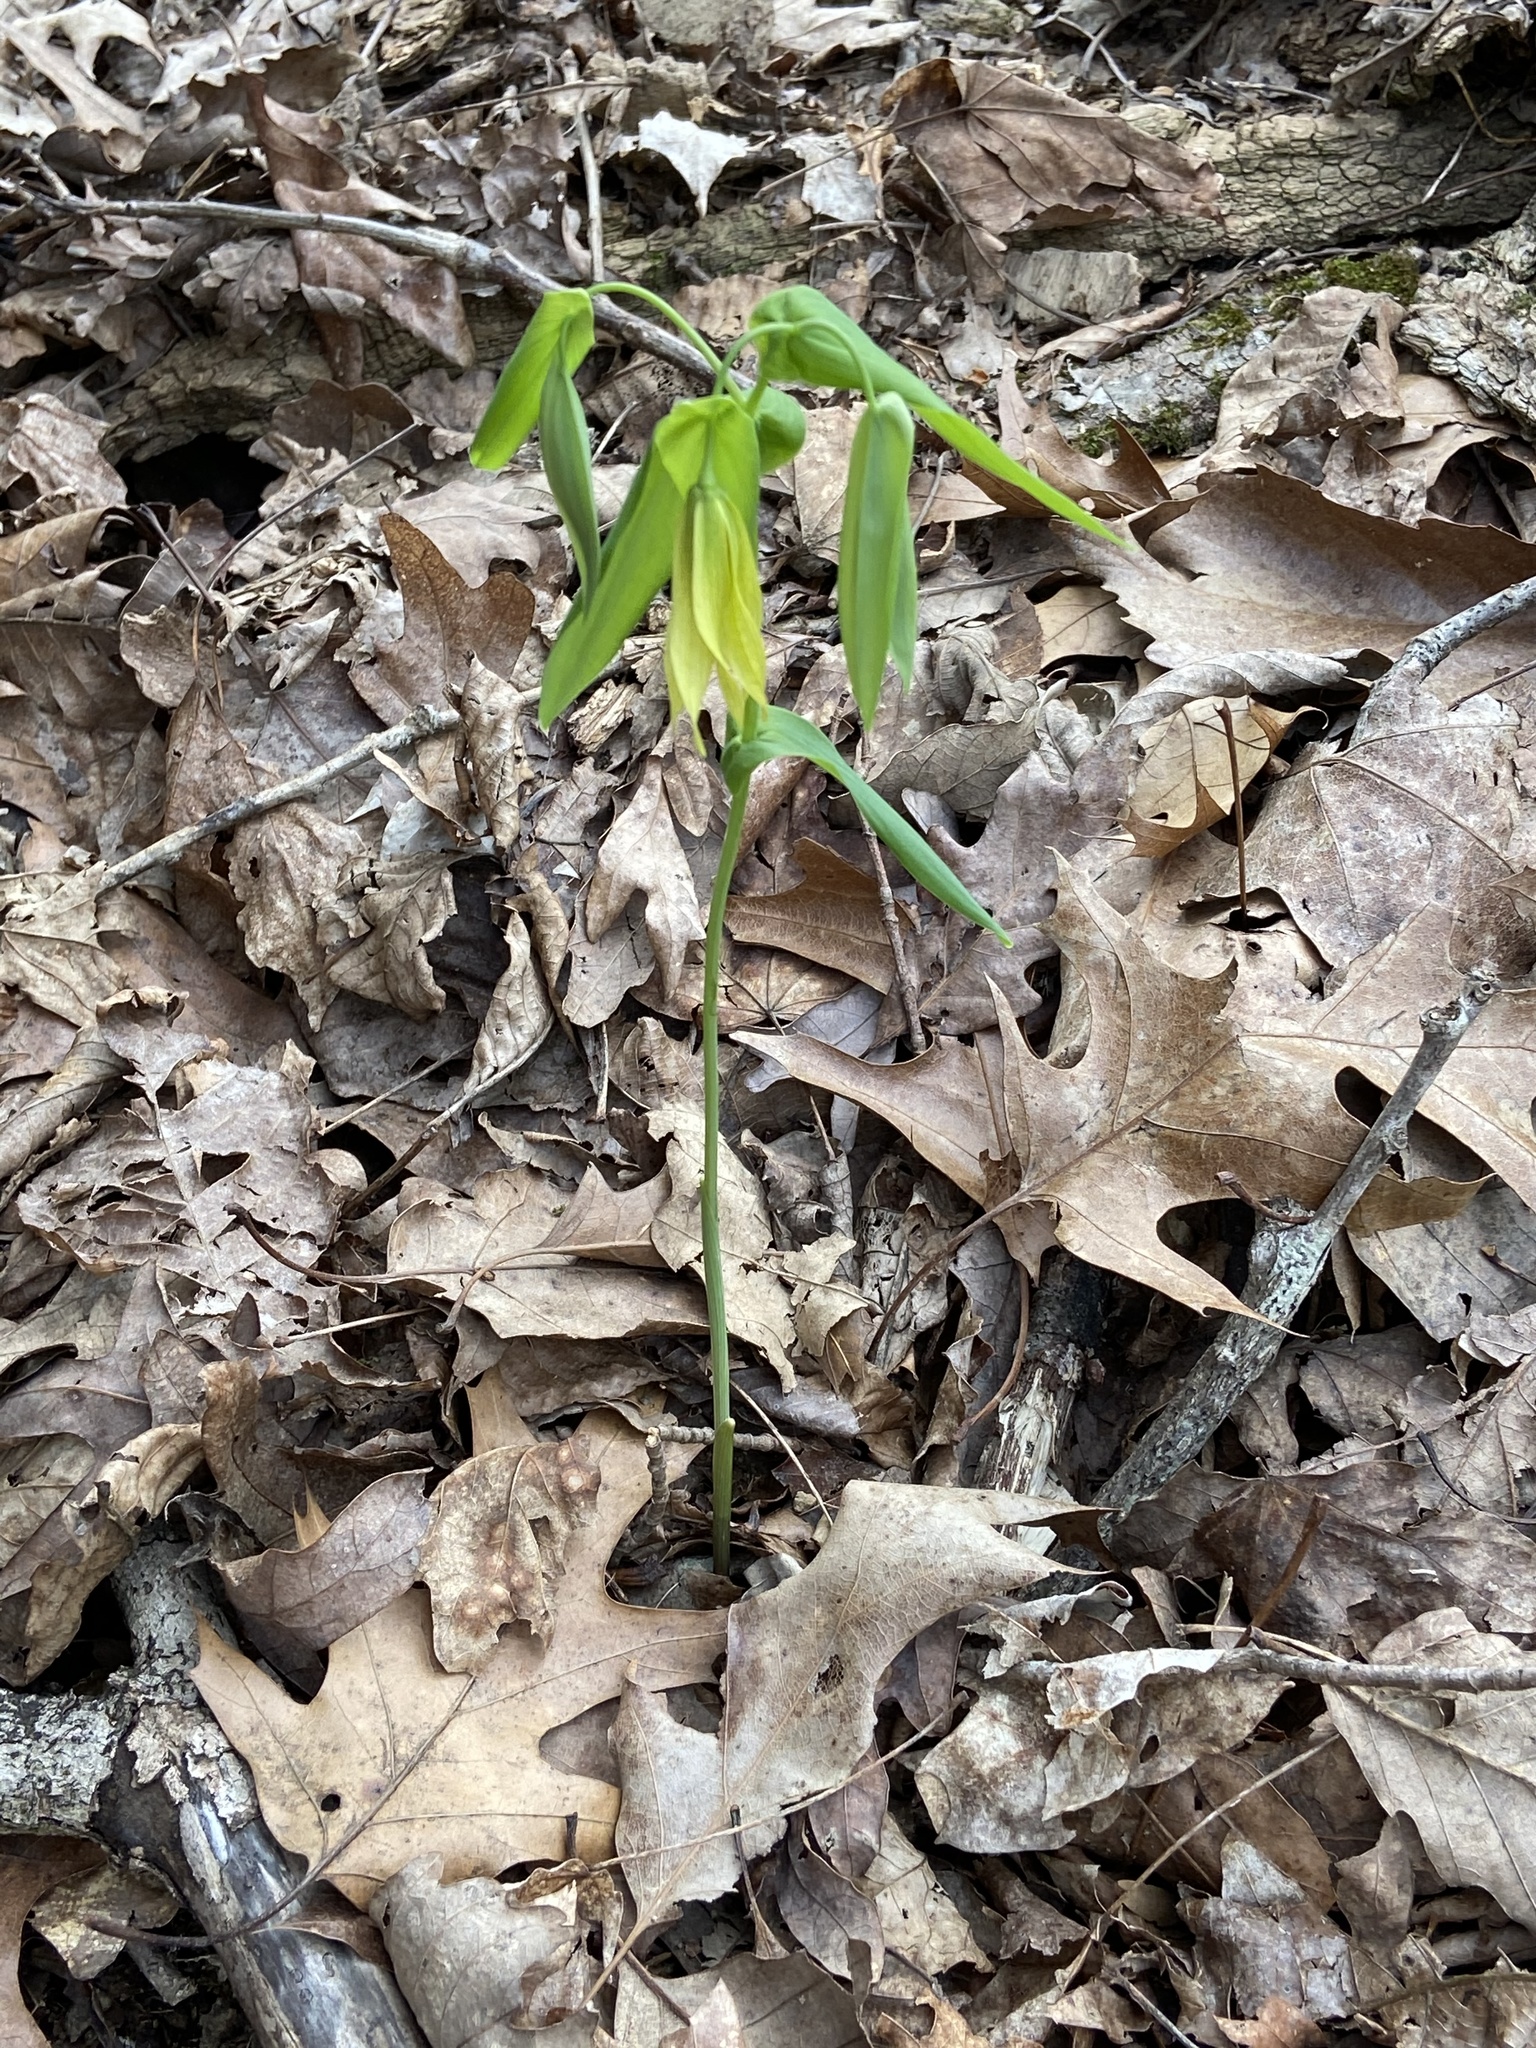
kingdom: Plantae
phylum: Tracheophyta
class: Liliopsida
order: Liliales
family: Colchicaceae
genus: Uvularia
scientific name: Uvularia grandiflora
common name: Bellwort
